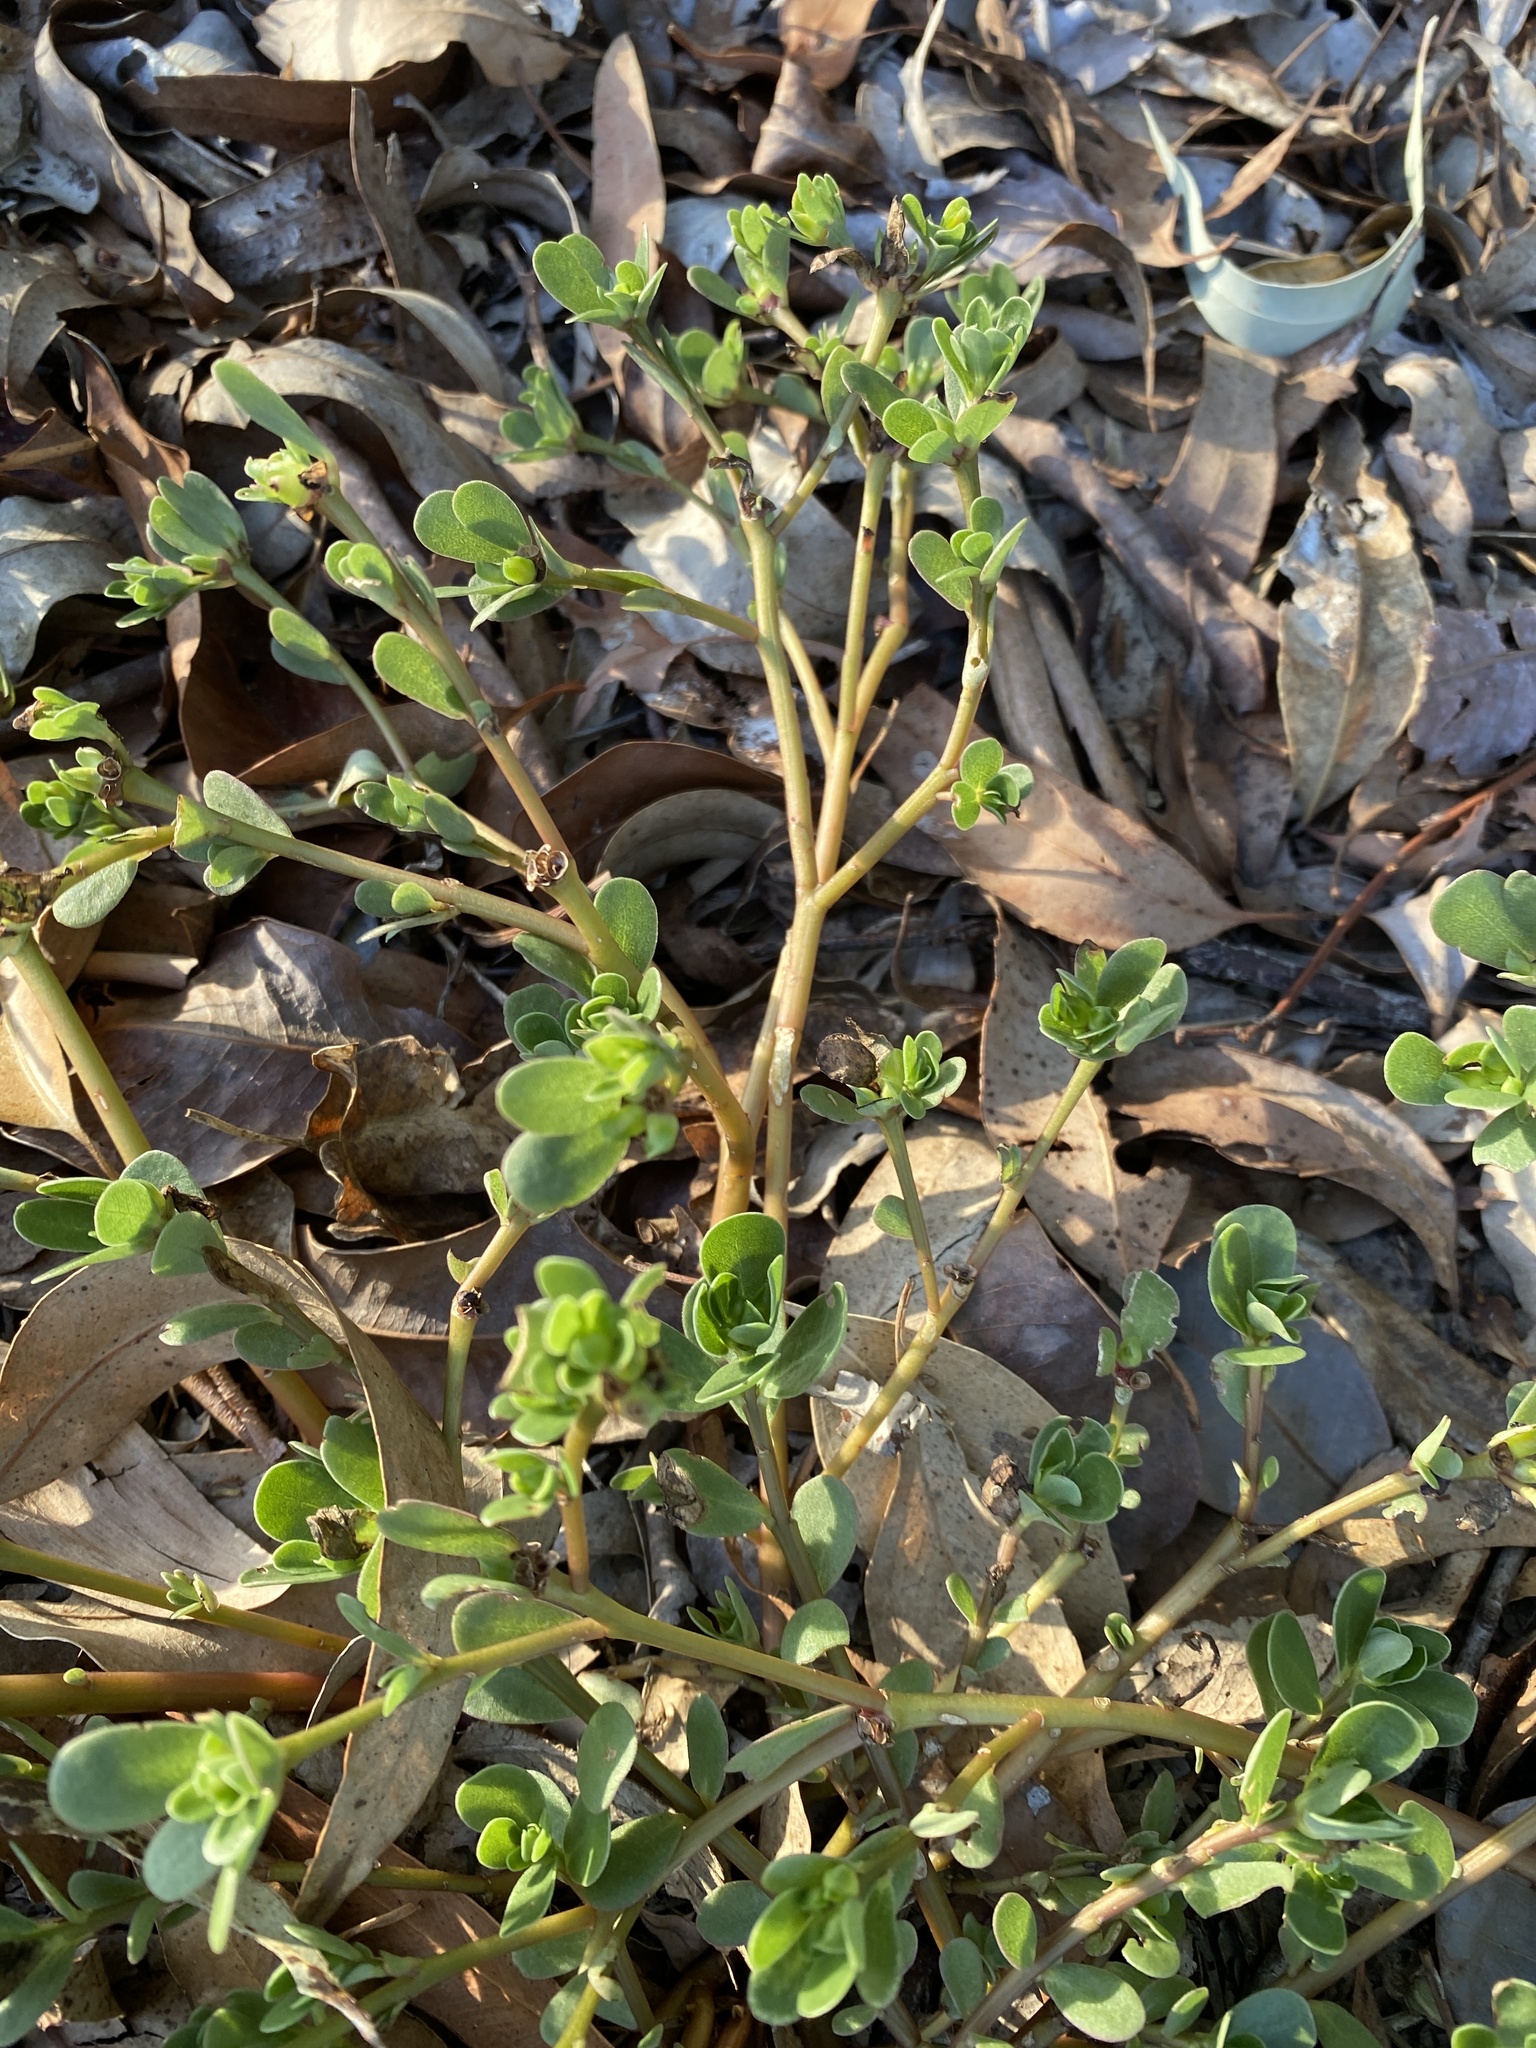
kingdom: Plantae
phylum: Tracheophyta
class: Magnoliopsida
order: Caryophyllales
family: Portulacaceae
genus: Portulaca
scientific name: Portulaca oleracea
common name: Common purslane
